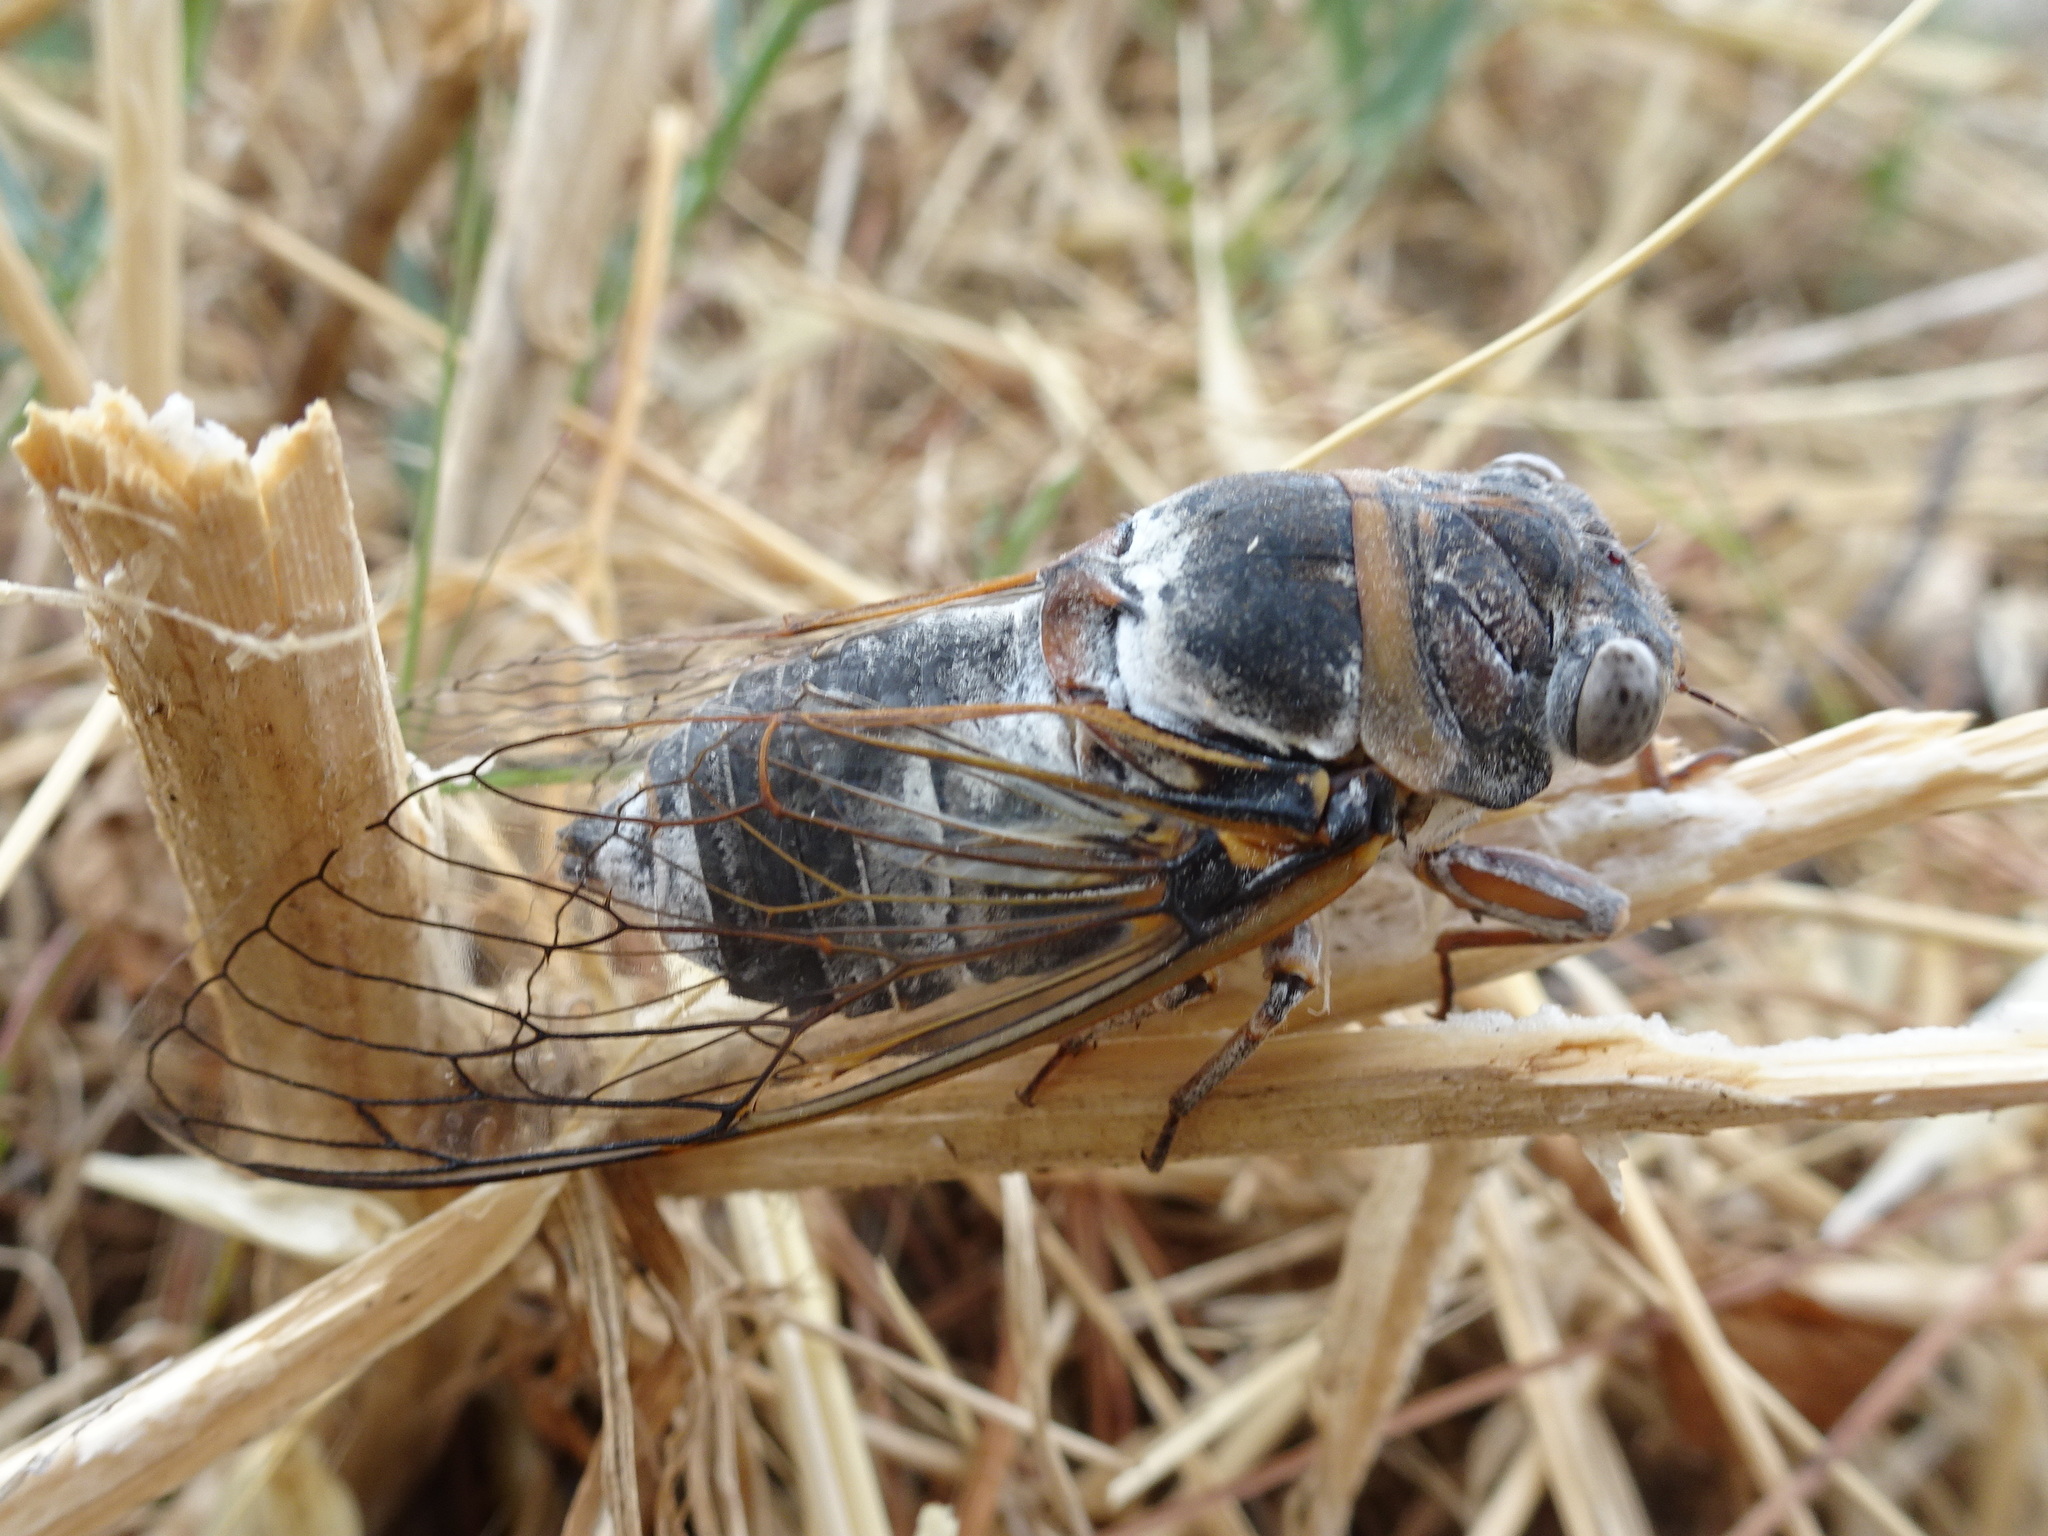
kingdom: Animalia
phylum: Arthropoda
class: Insecta
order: Hemiptera
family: Cicadidae
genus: Lyristes
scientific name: Lyristes plebejus
